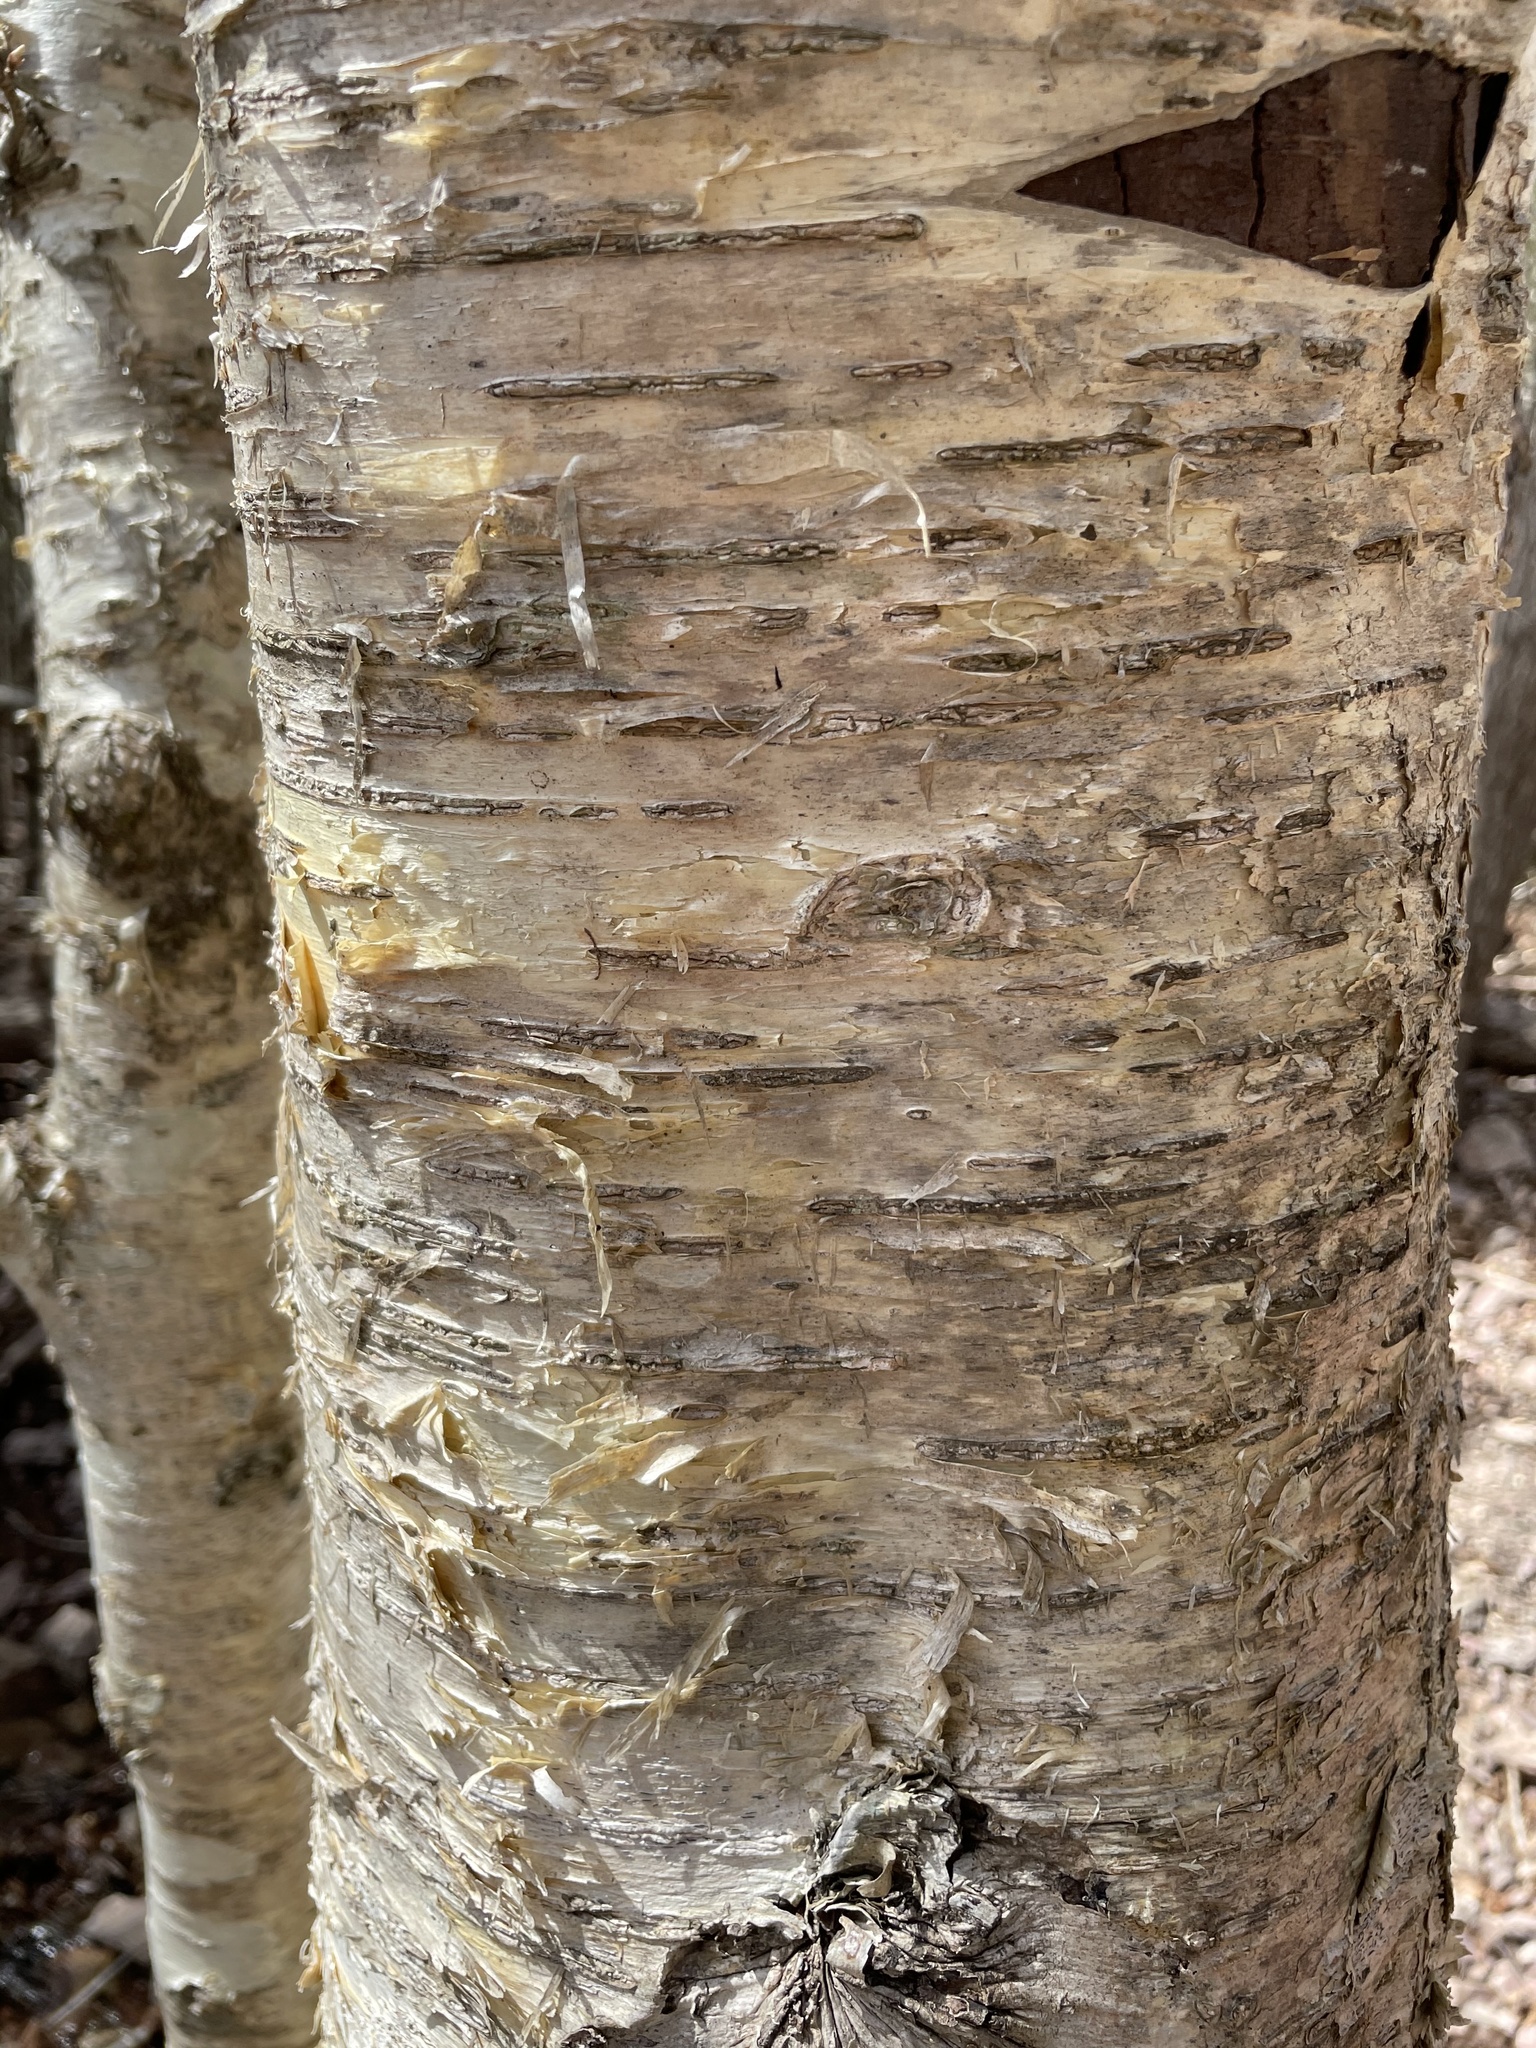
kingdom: Plantae
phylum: Tracheophyta
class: Magnoliopsida
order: Fagales
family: Betulaceae
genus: Betula
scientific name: Betula alleghaniensis
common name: Yellow birch
